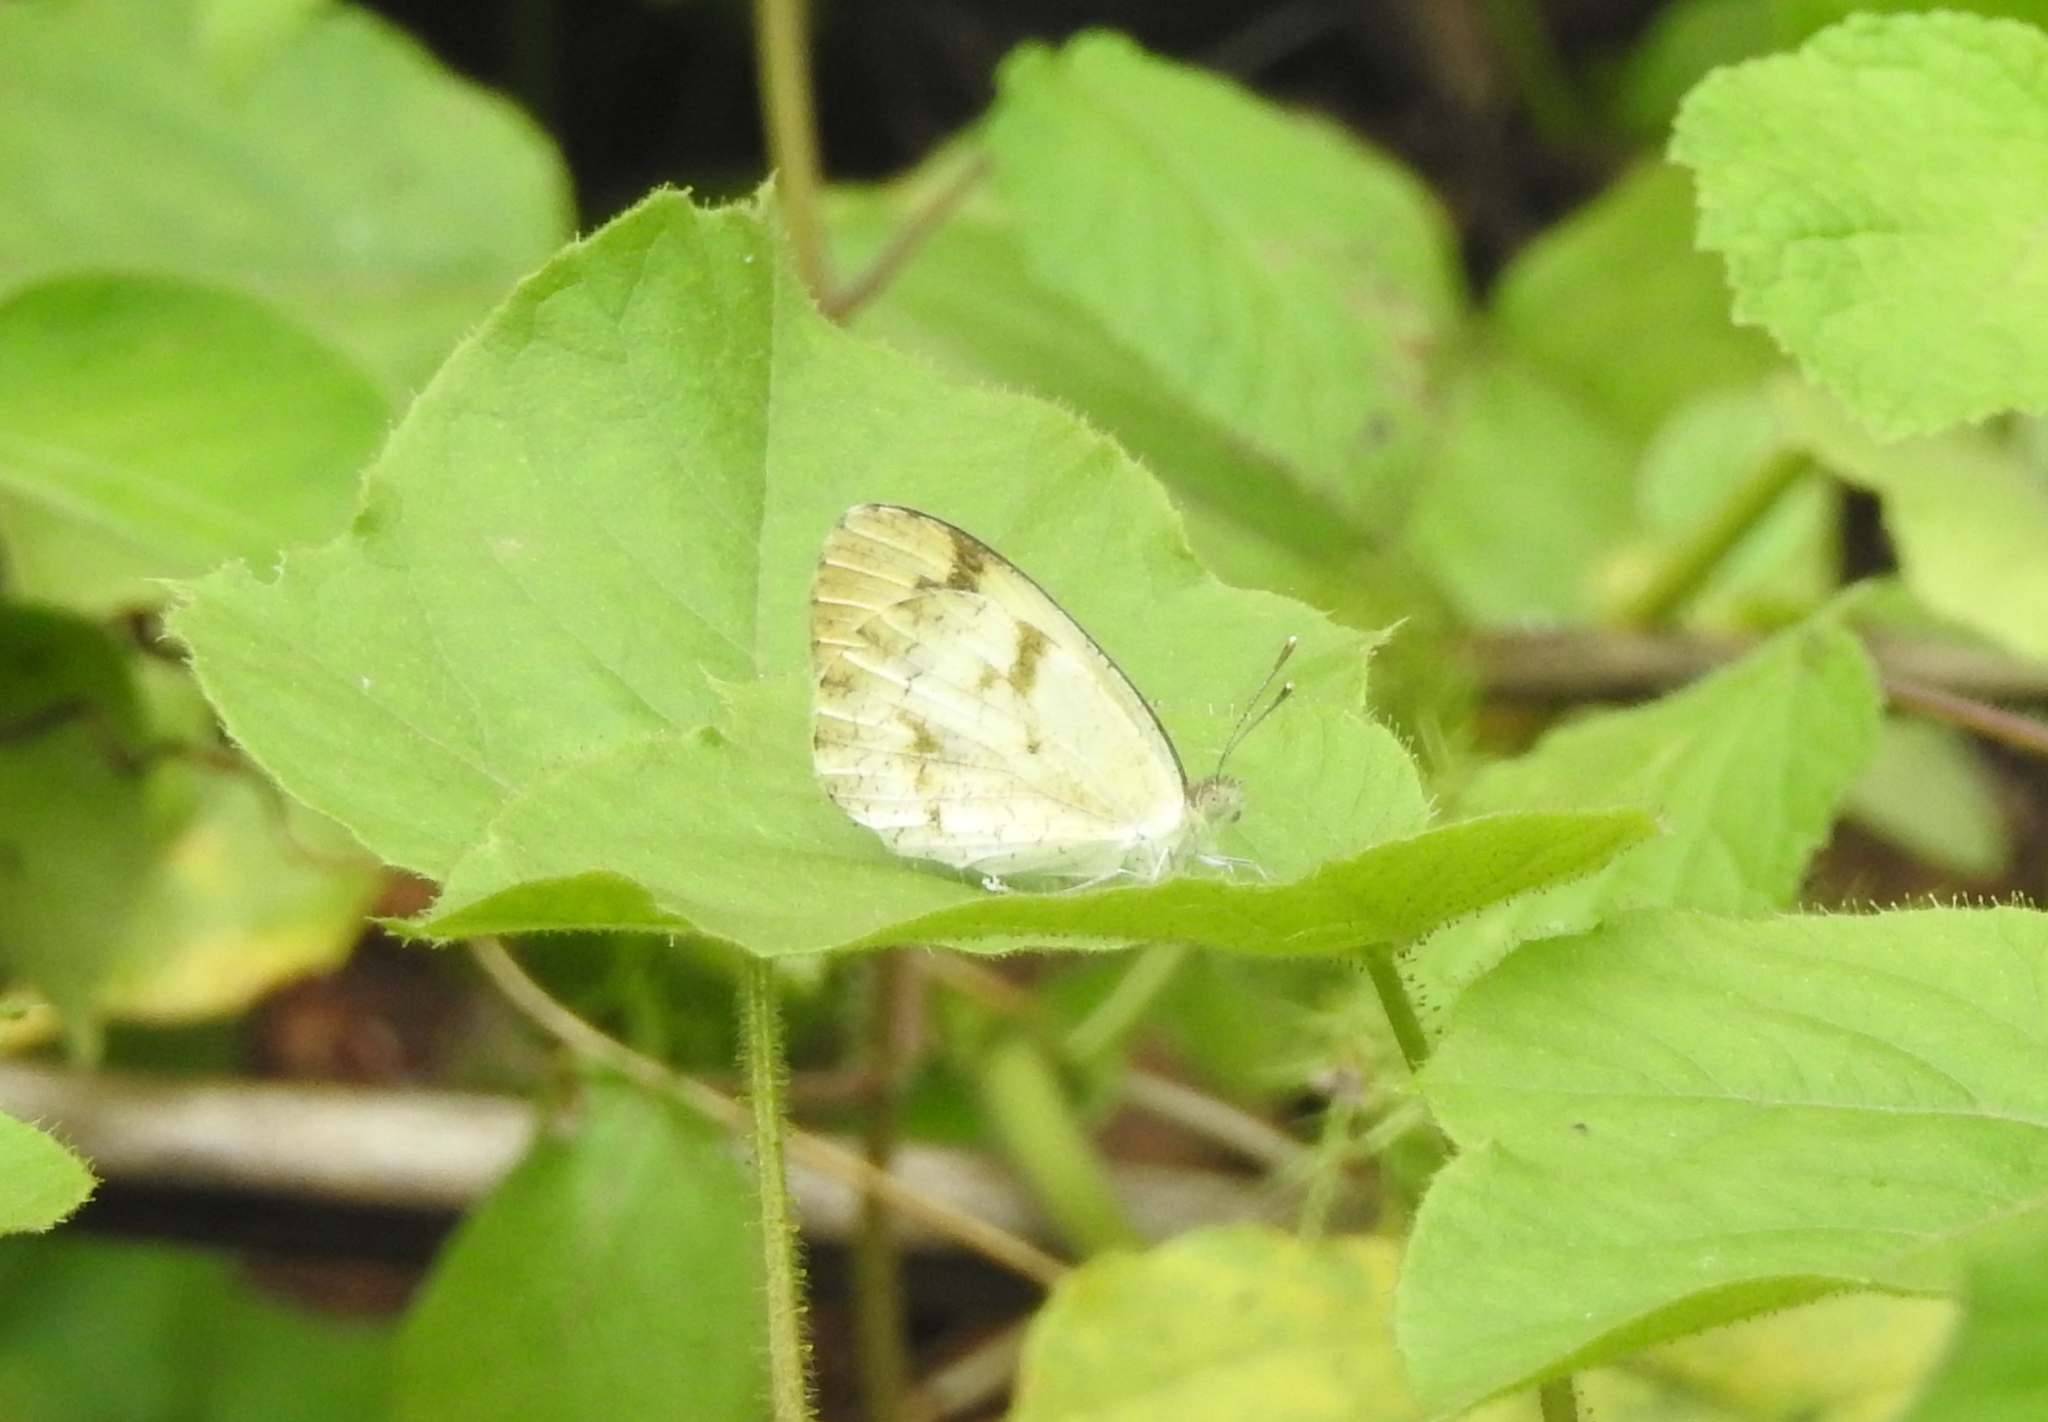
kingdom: Animalia
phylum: Arthropoda
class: Insecta
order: Lepidoptera
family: Pieridae
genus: Colotis
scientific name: Colotis aurora
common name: Plain orange-tip
